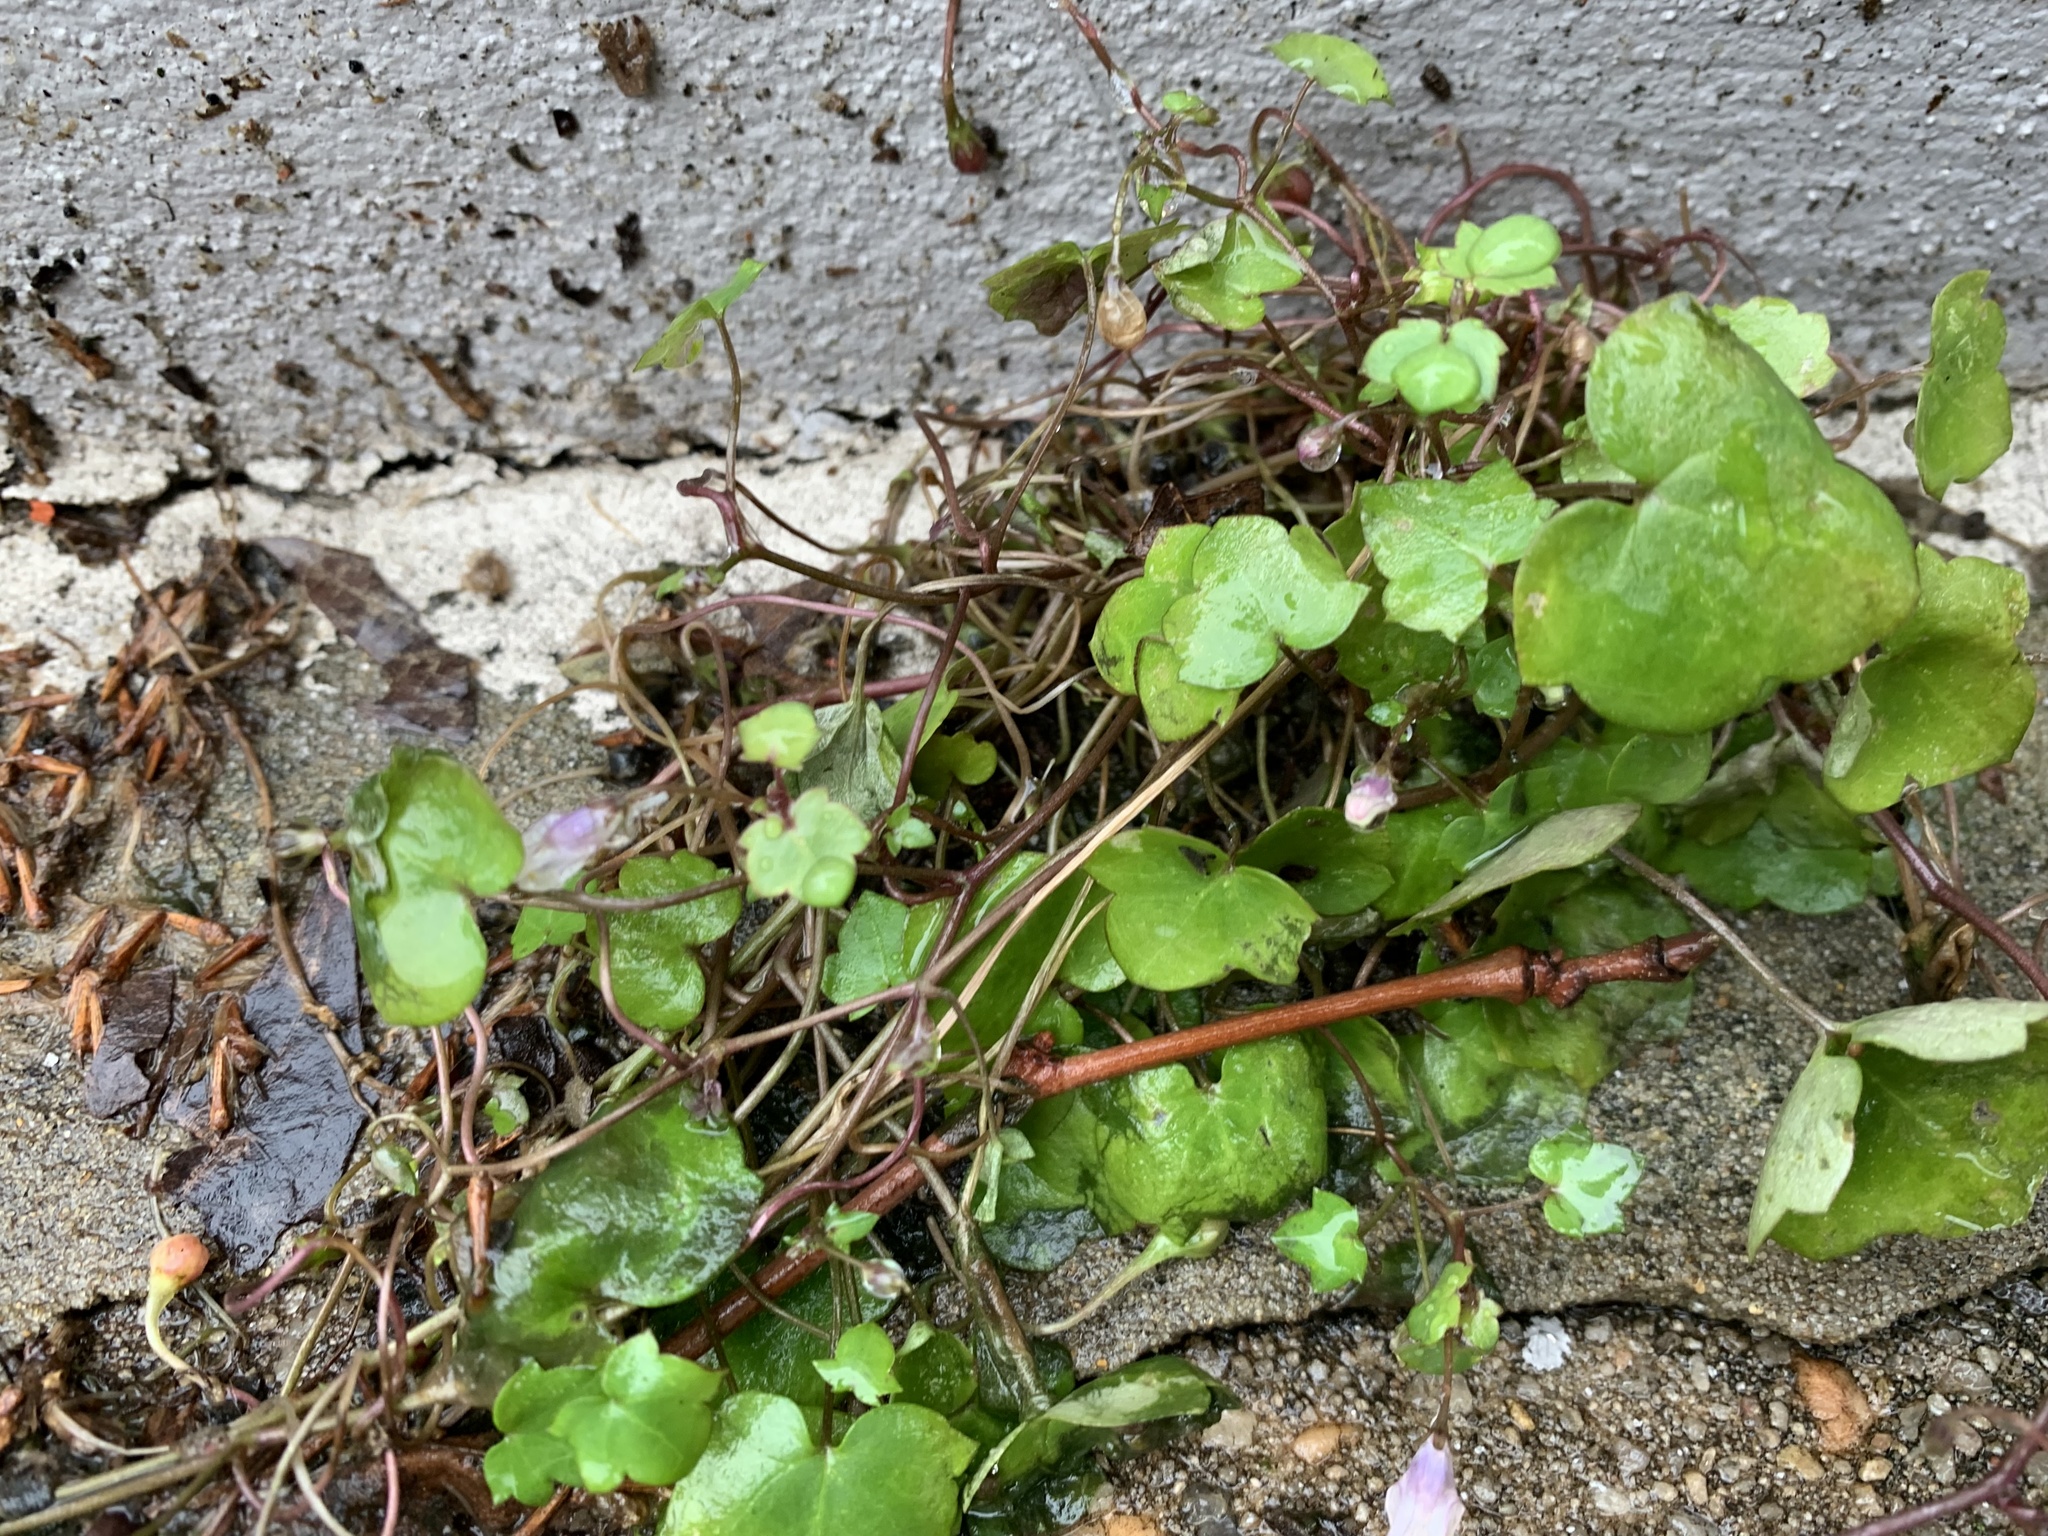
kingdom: Plantae
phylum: Tracheophyta
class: Magnoliopsida
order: Lamiales
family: Plantaginaceae
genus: Cymbalaria
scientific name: Cymbalaria muralis
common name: Ivy-leaved toadflax
